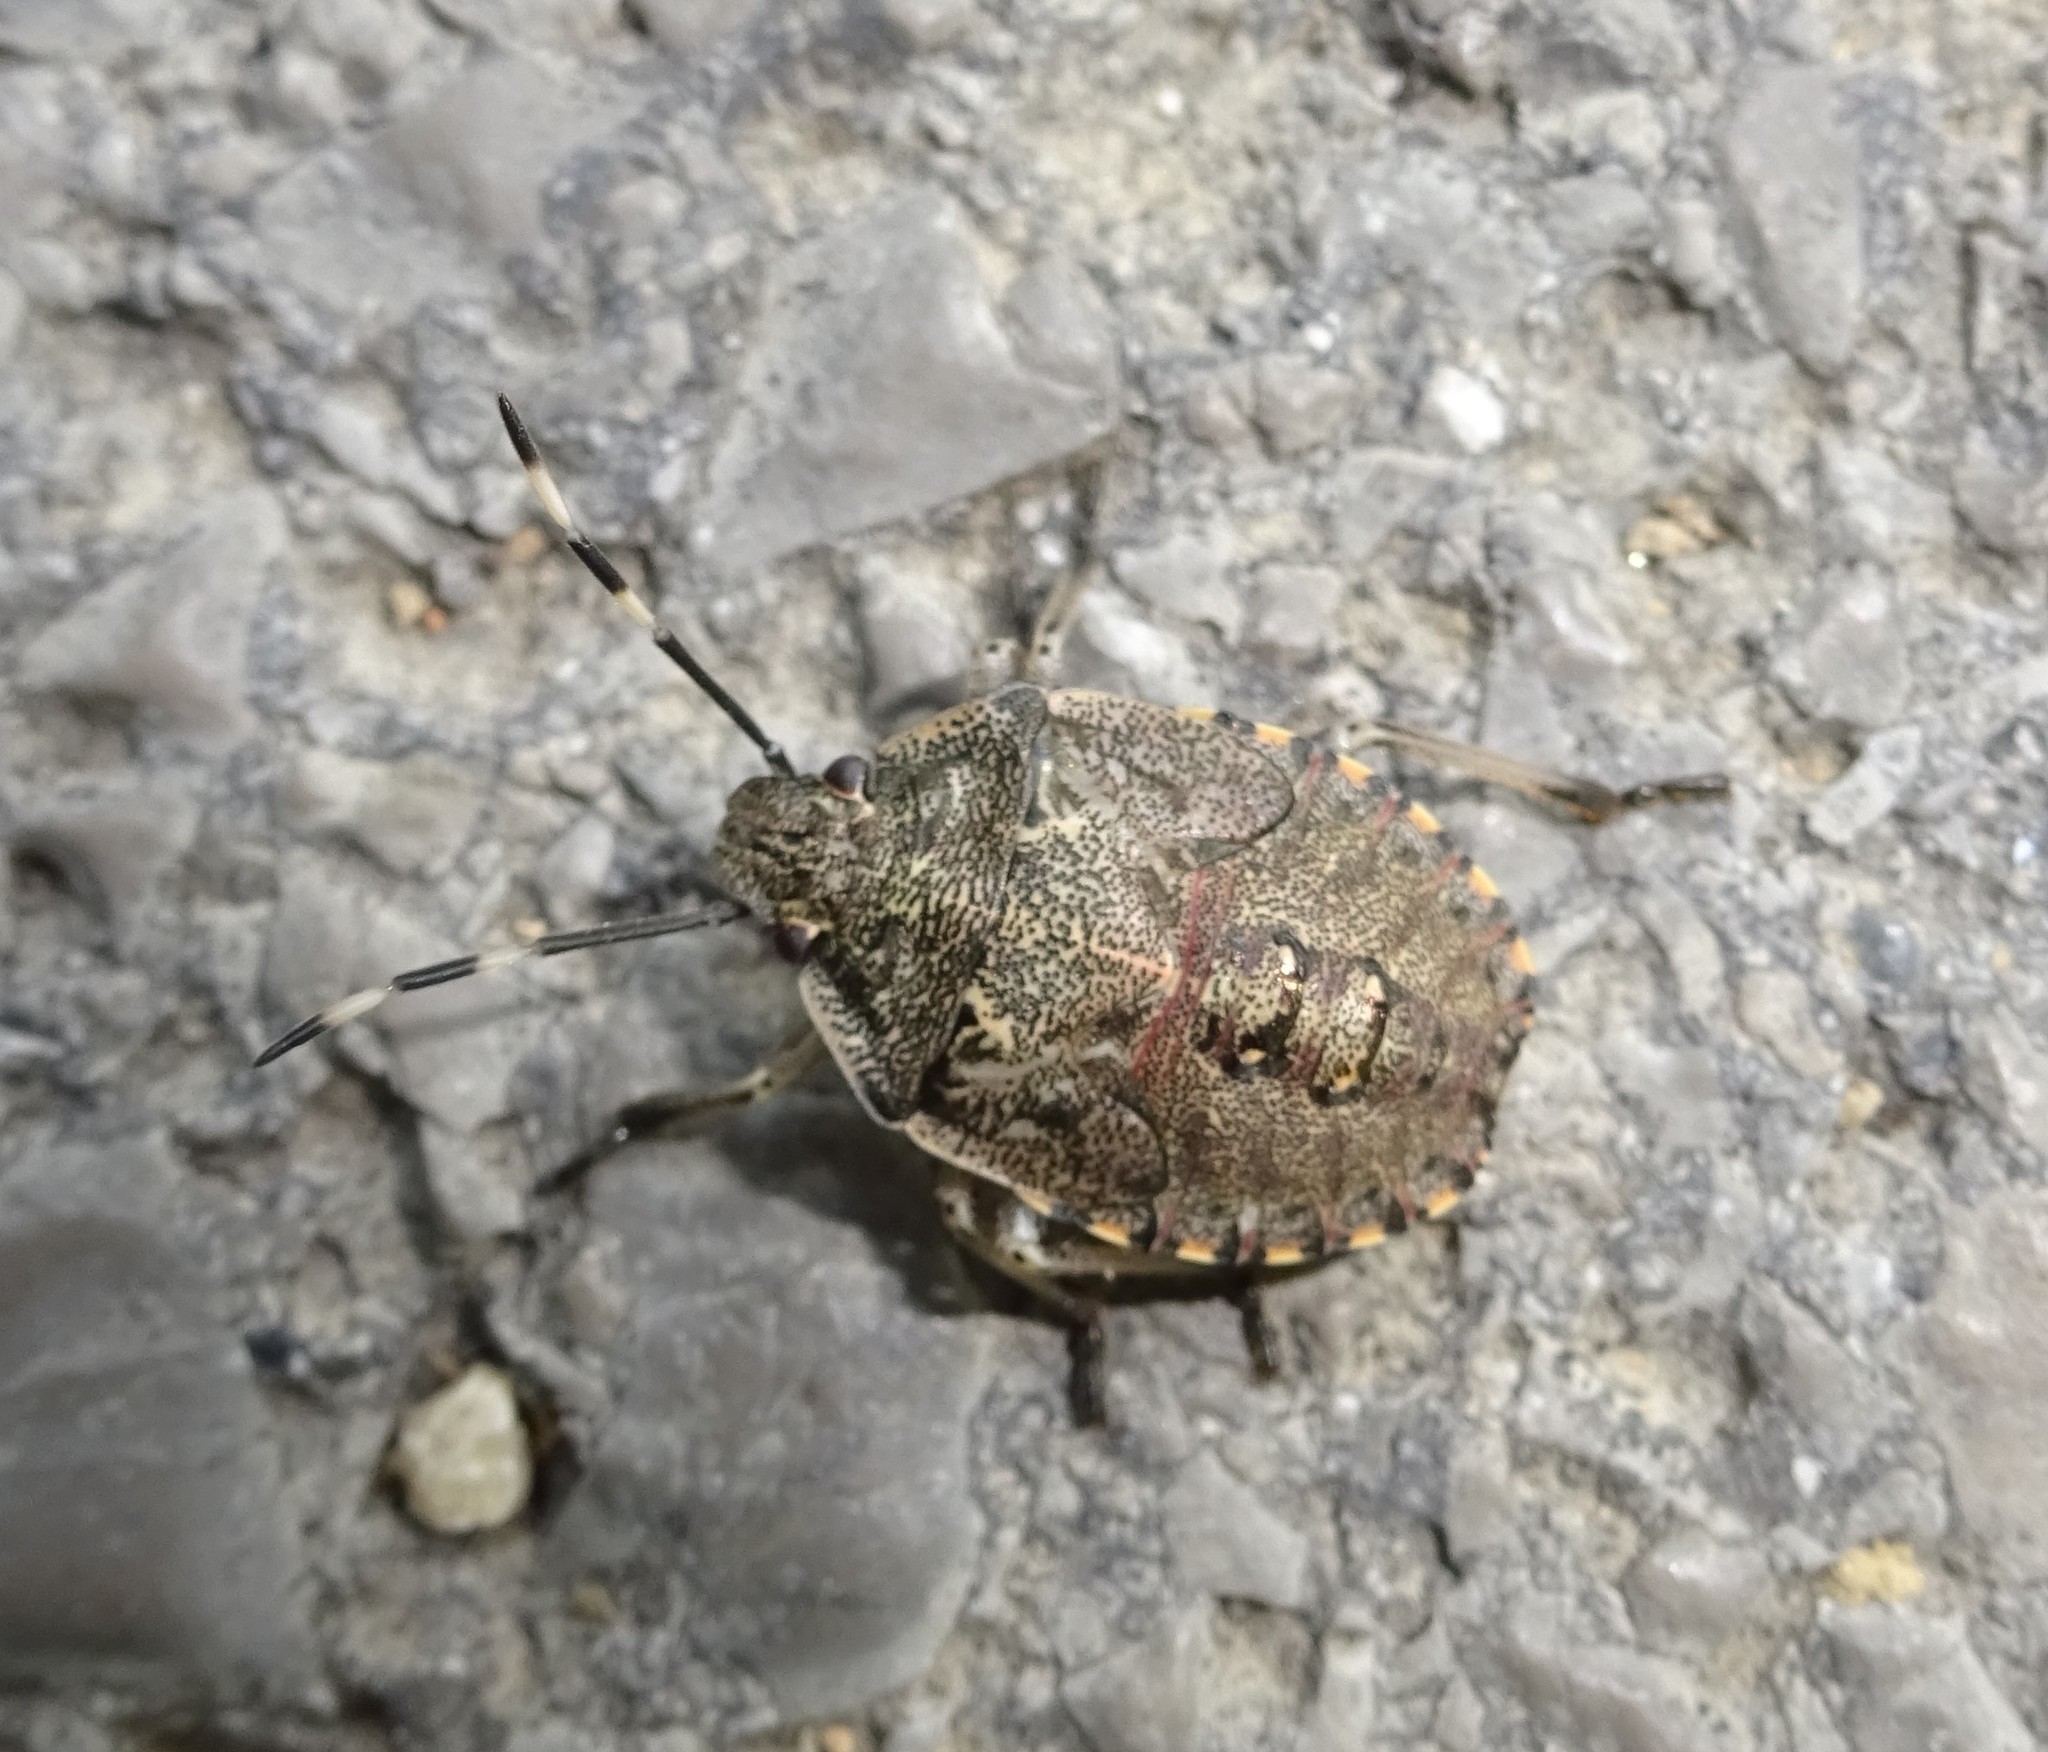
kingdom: Animalia
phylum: Arthropoda
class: Insecta
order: Hemiptera
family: Pentatomidae
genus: Rhaphigaster
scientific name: Rhaphigaster nebulosa
